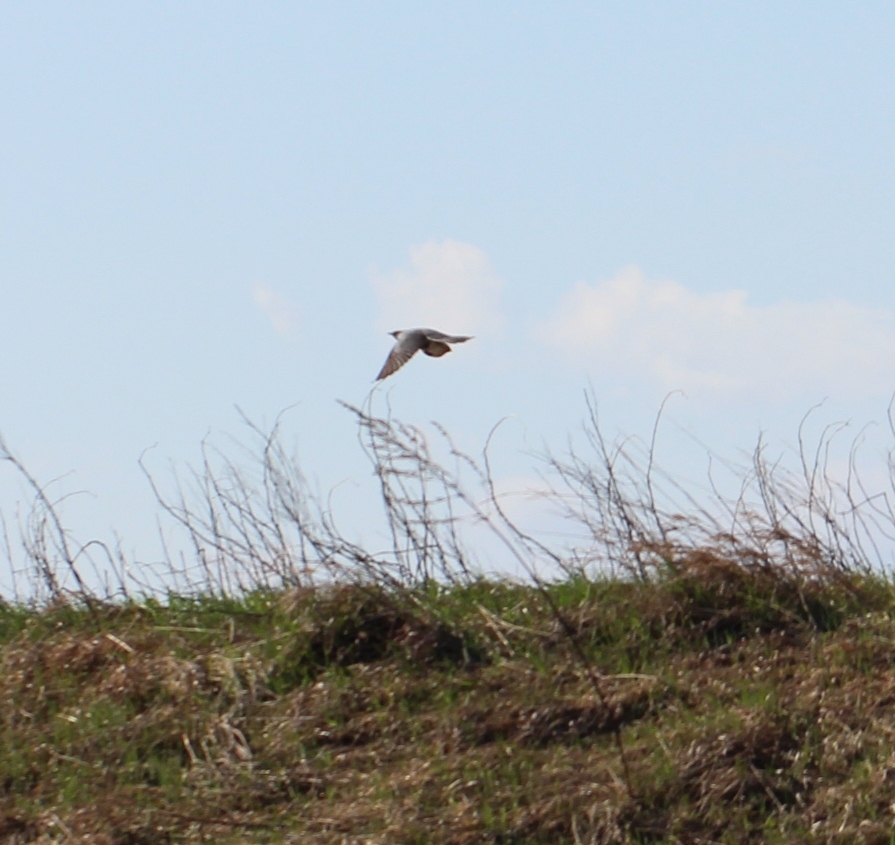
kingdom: Animalia
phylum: Chordata
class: Aves
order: Cuculiformes
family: Cuculidae
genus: Cuculus
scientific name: Cuculus canorus
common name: Common cuckoo
